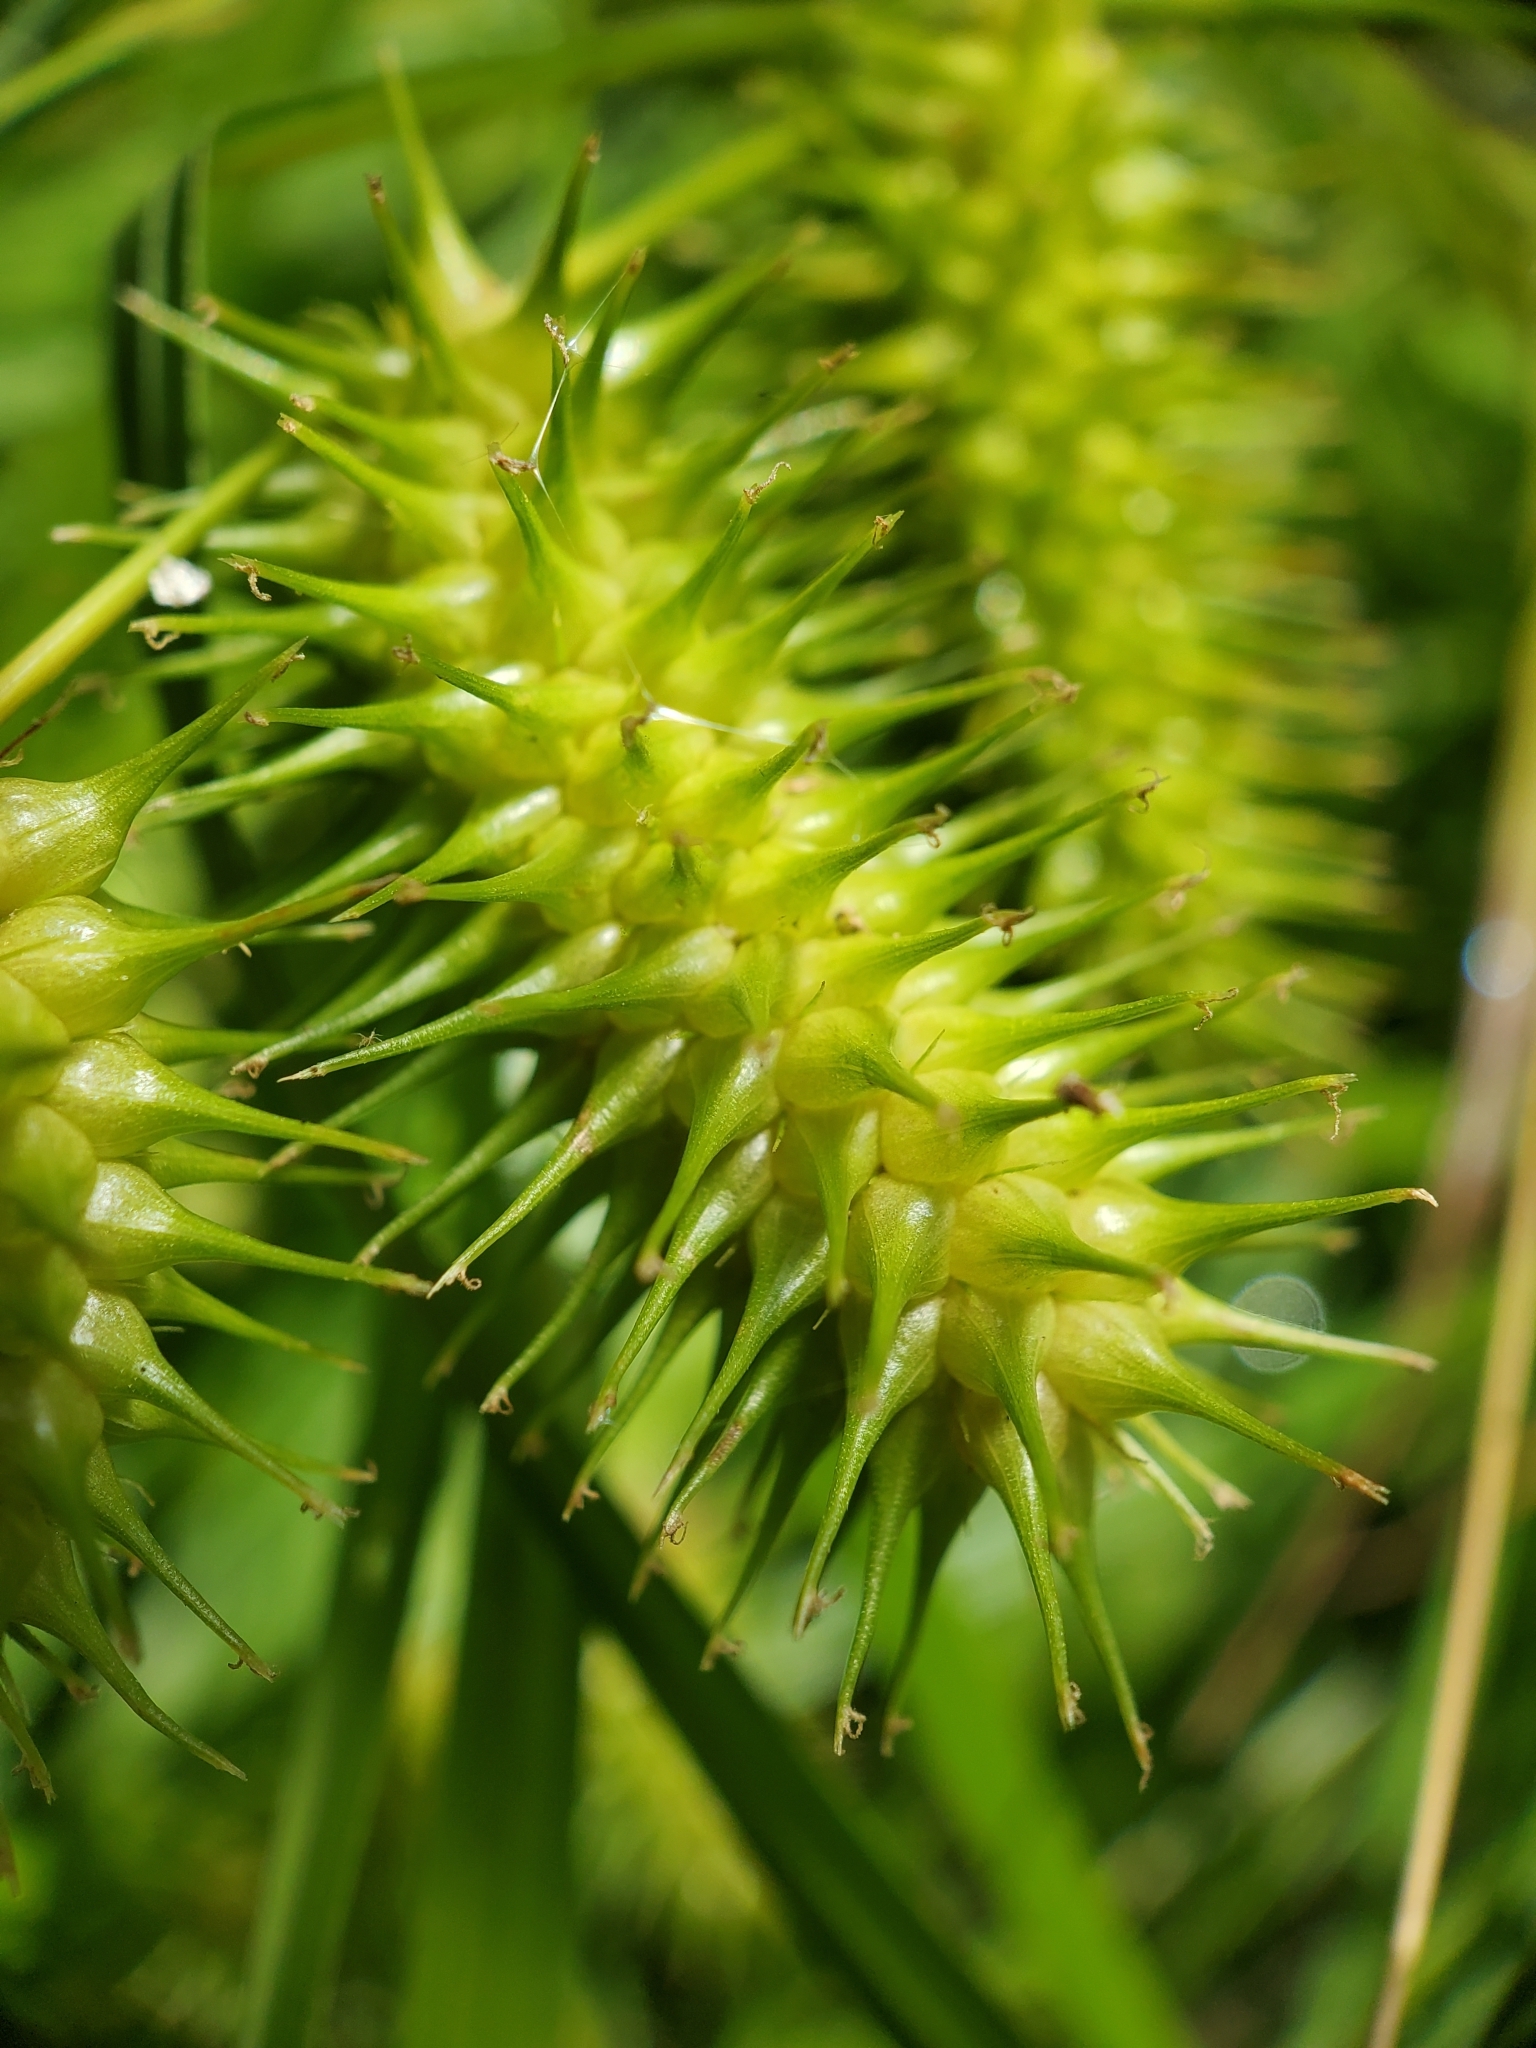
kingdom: Plantae
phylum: Tracheophyta
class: Liliopsida
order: Poales
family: Cyperaceae
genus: Carex
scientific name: Carex lurida
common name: Sallow sedge
